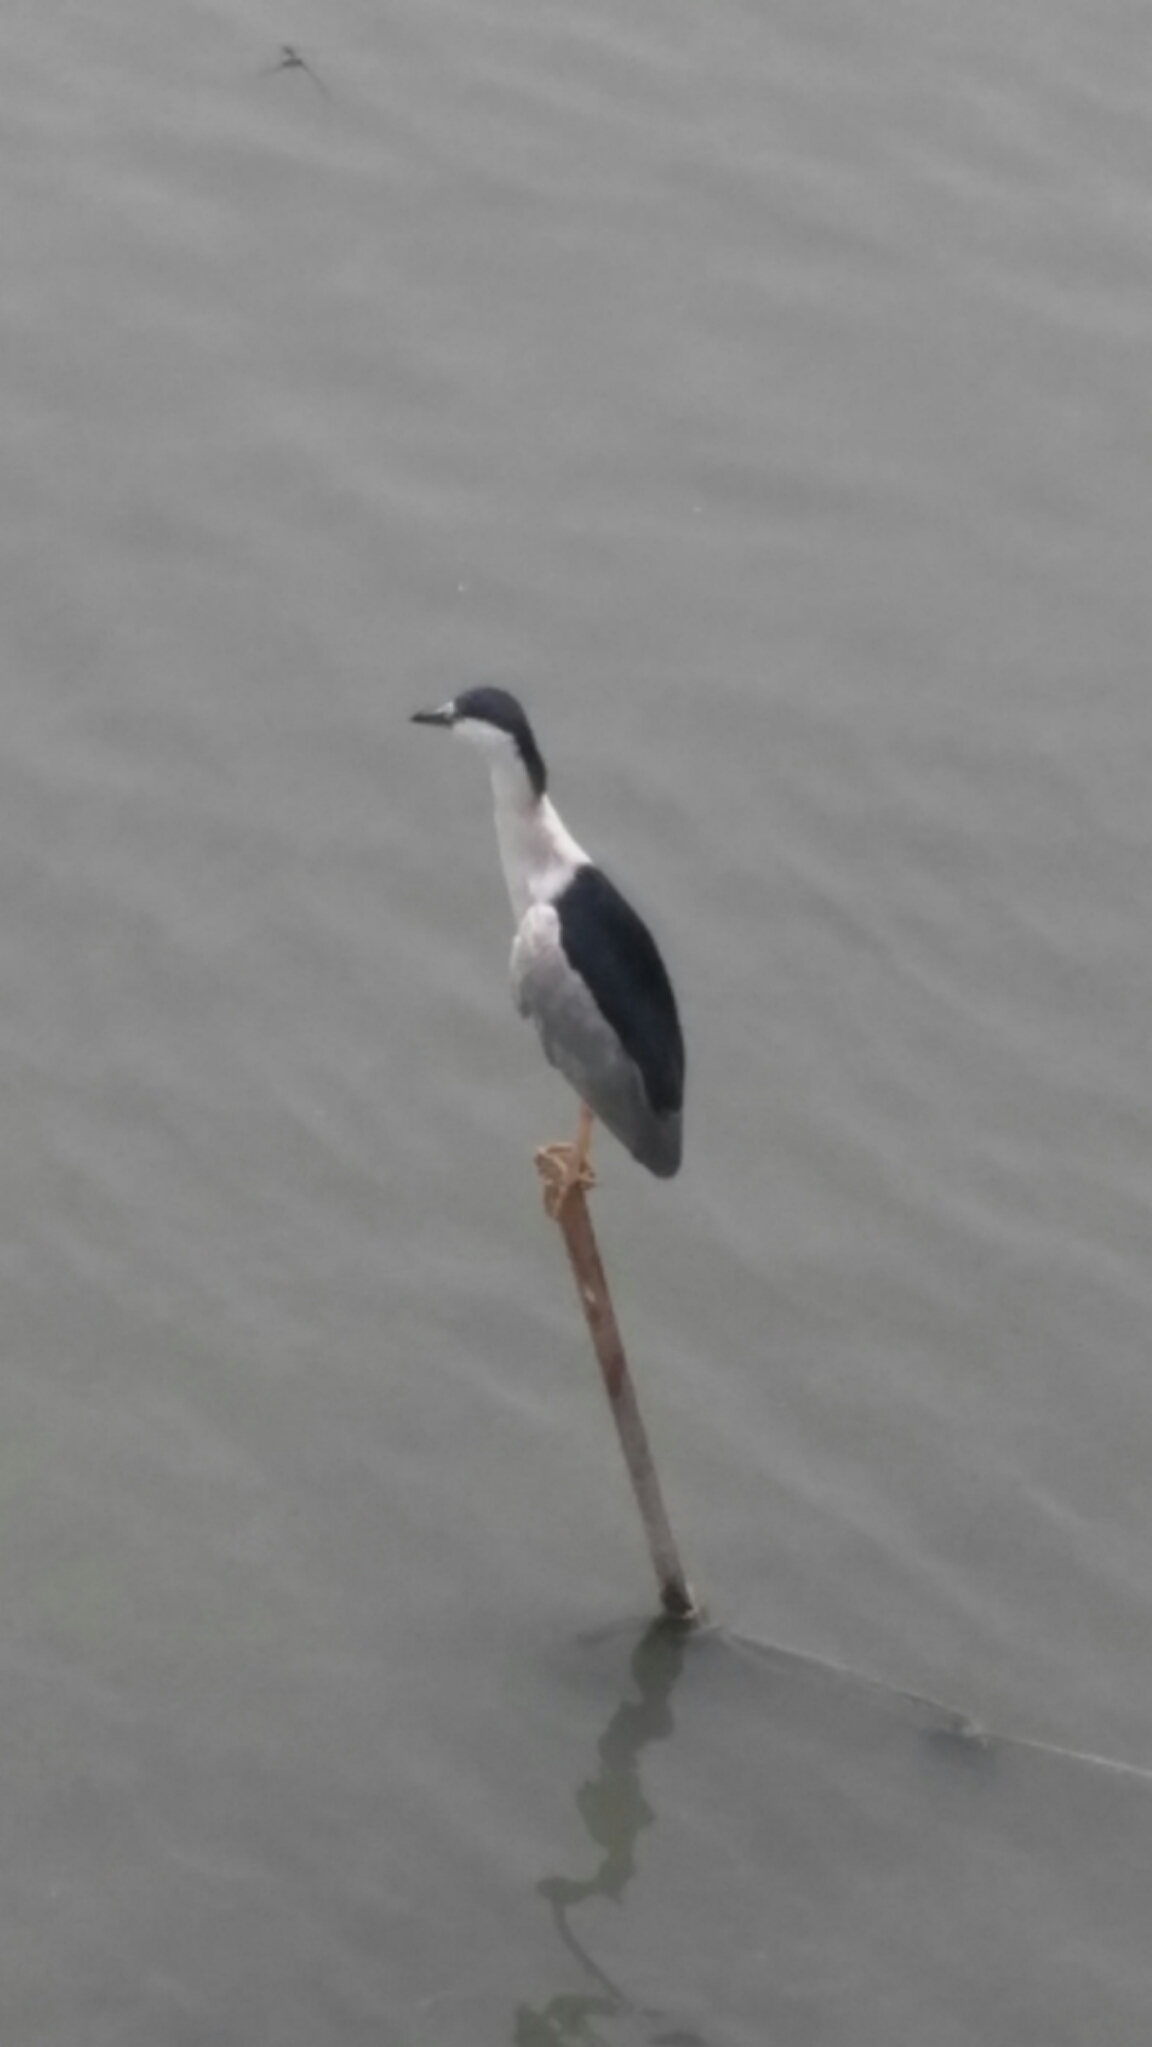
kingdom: Animalia
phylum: Chordata
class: Aves
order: Pelecaniformes
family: Ardeidae
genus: Nycticorax
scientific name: Nycticorax nycticorax
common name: Black-crowned night heron
